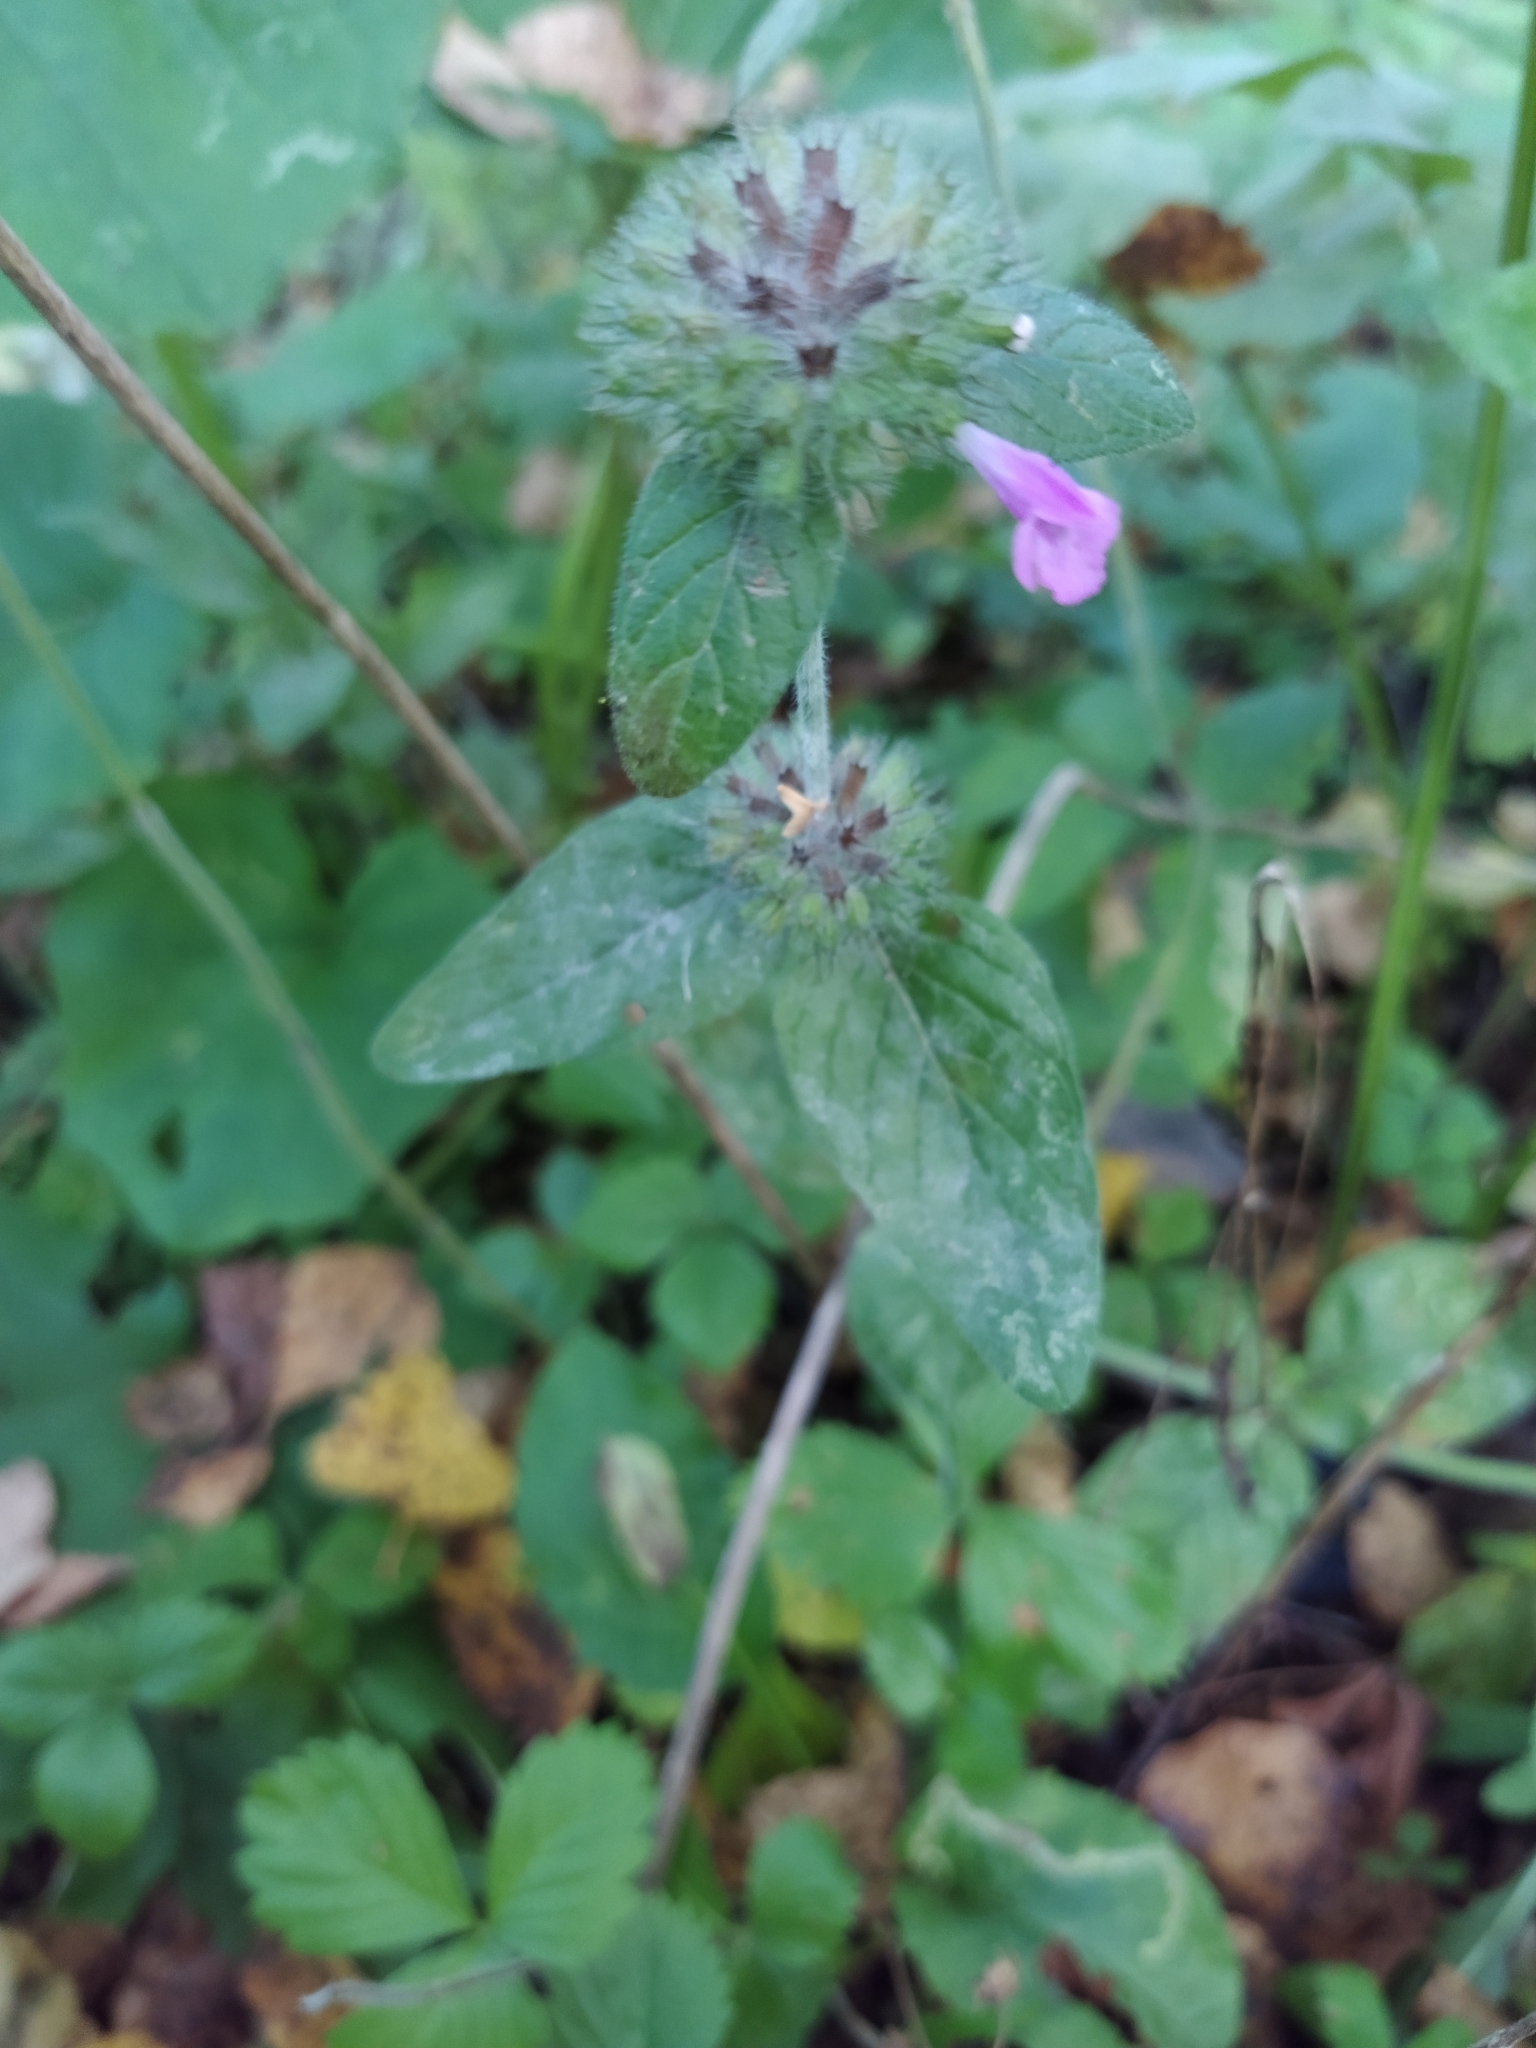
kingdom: Plantae
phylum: Tracheophyta
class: Magnoliopsida
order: Lamiales
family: Lamiaceae
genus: Clinopodium
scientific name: Clinopodium vulgare
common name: Wild basil
